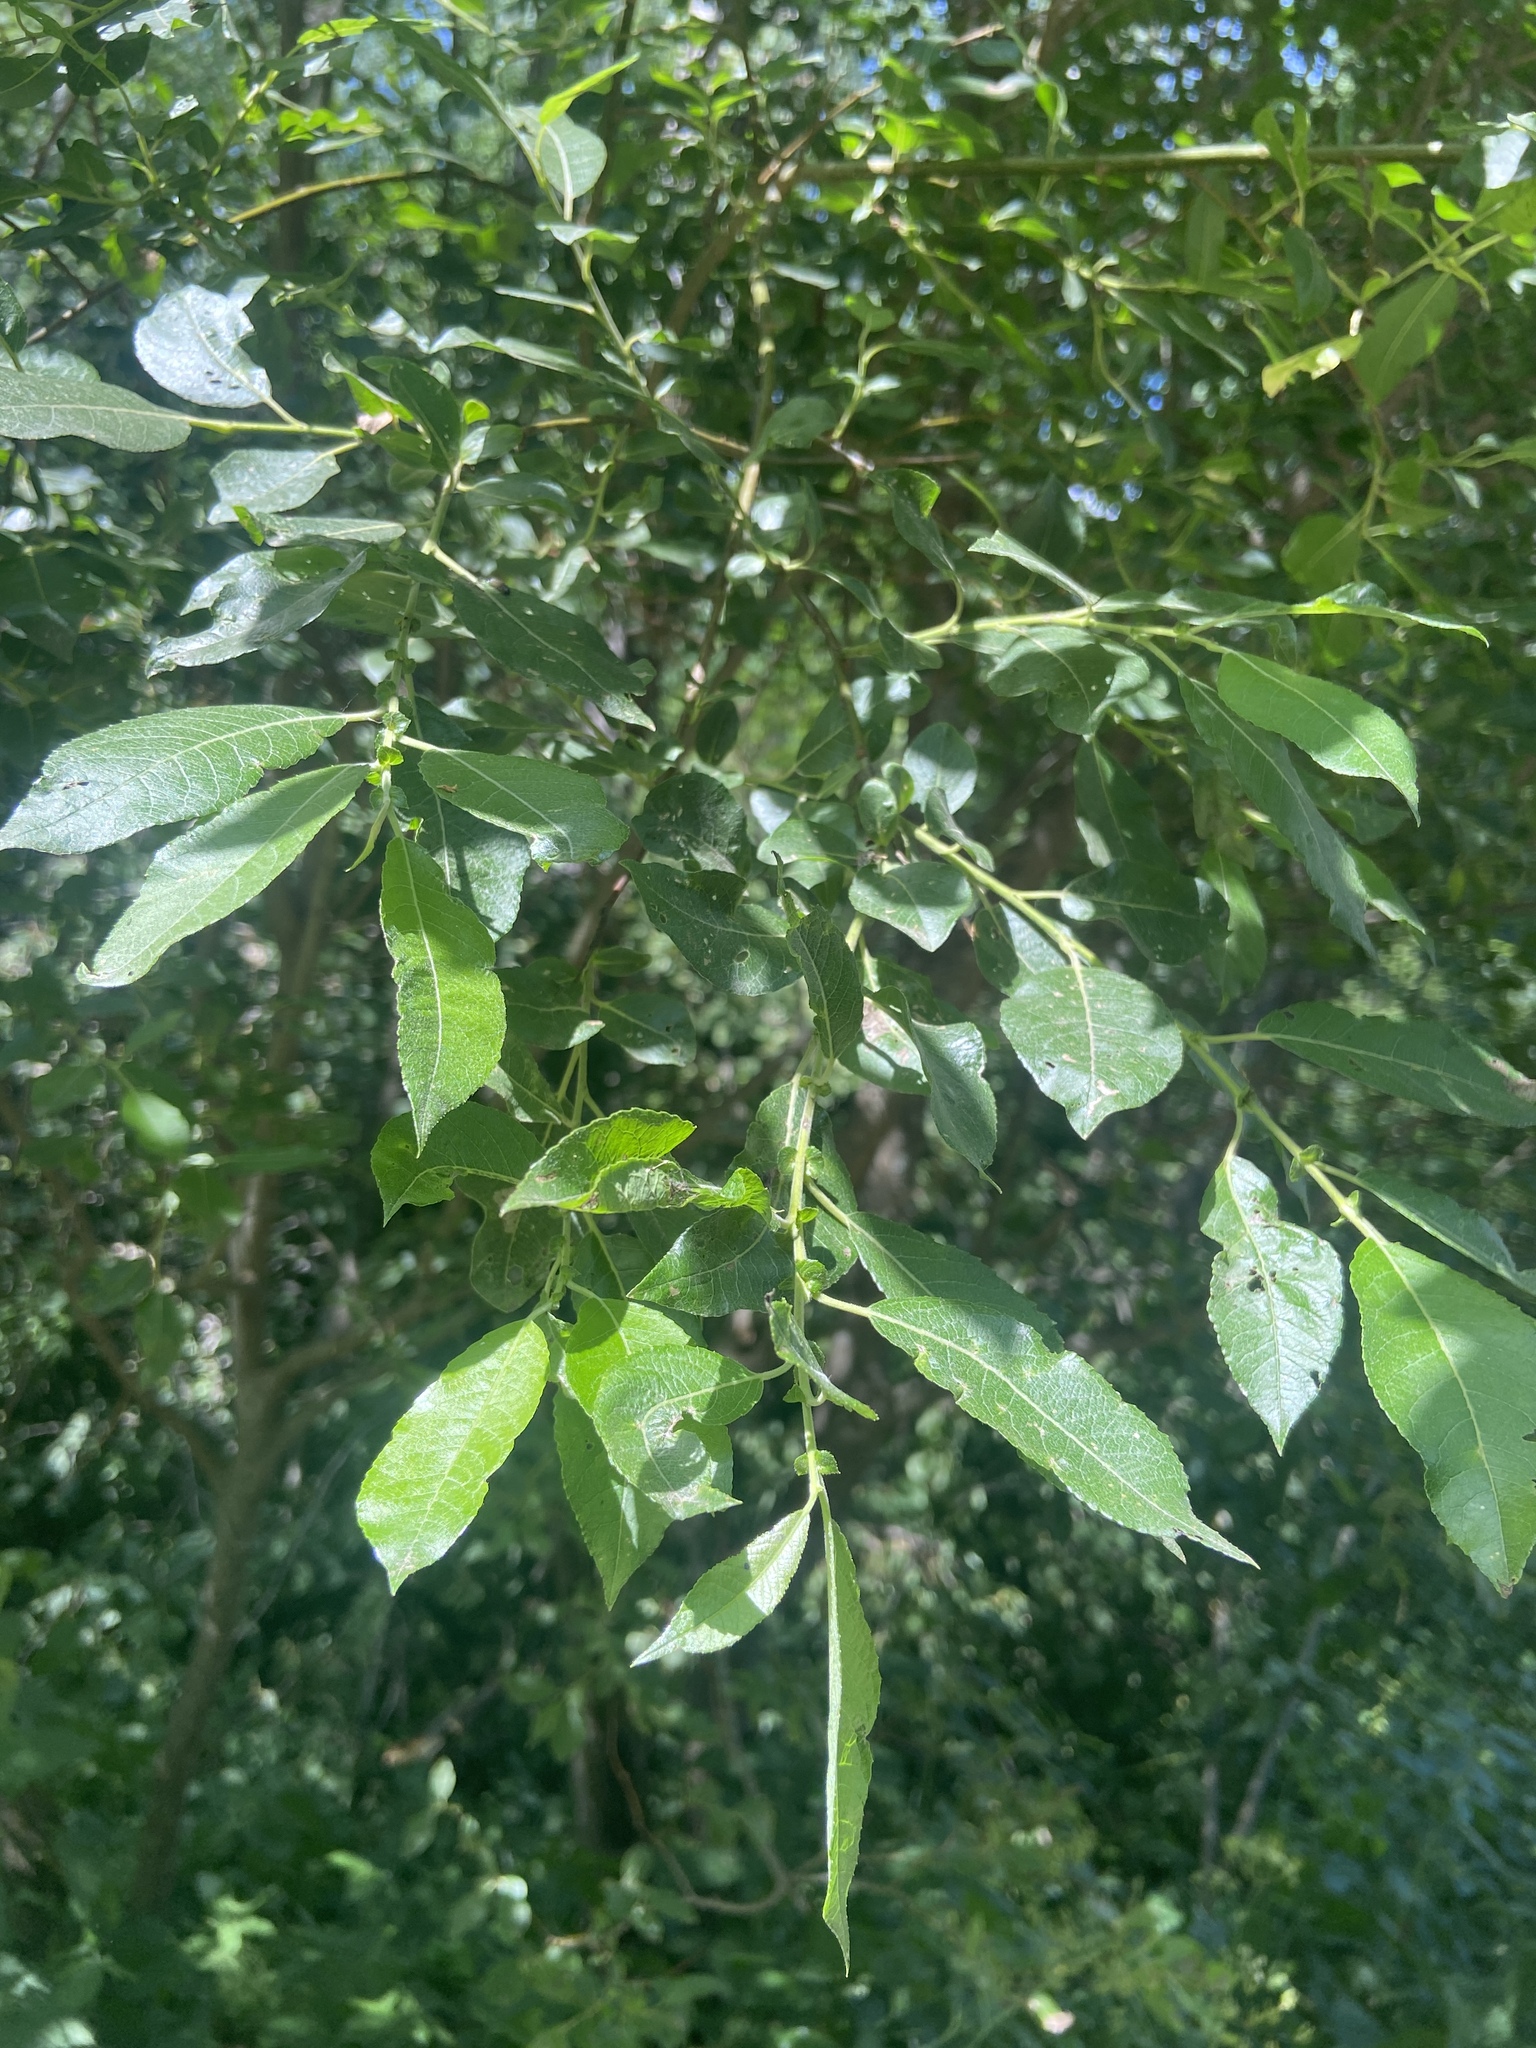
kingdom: Plantae
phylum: Tracheophyta
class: Magnoliopsida
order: Malpighiales
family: Salicaceae
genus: Salix
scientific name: Salix myrsinifolia
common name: Dark-leaved willow
